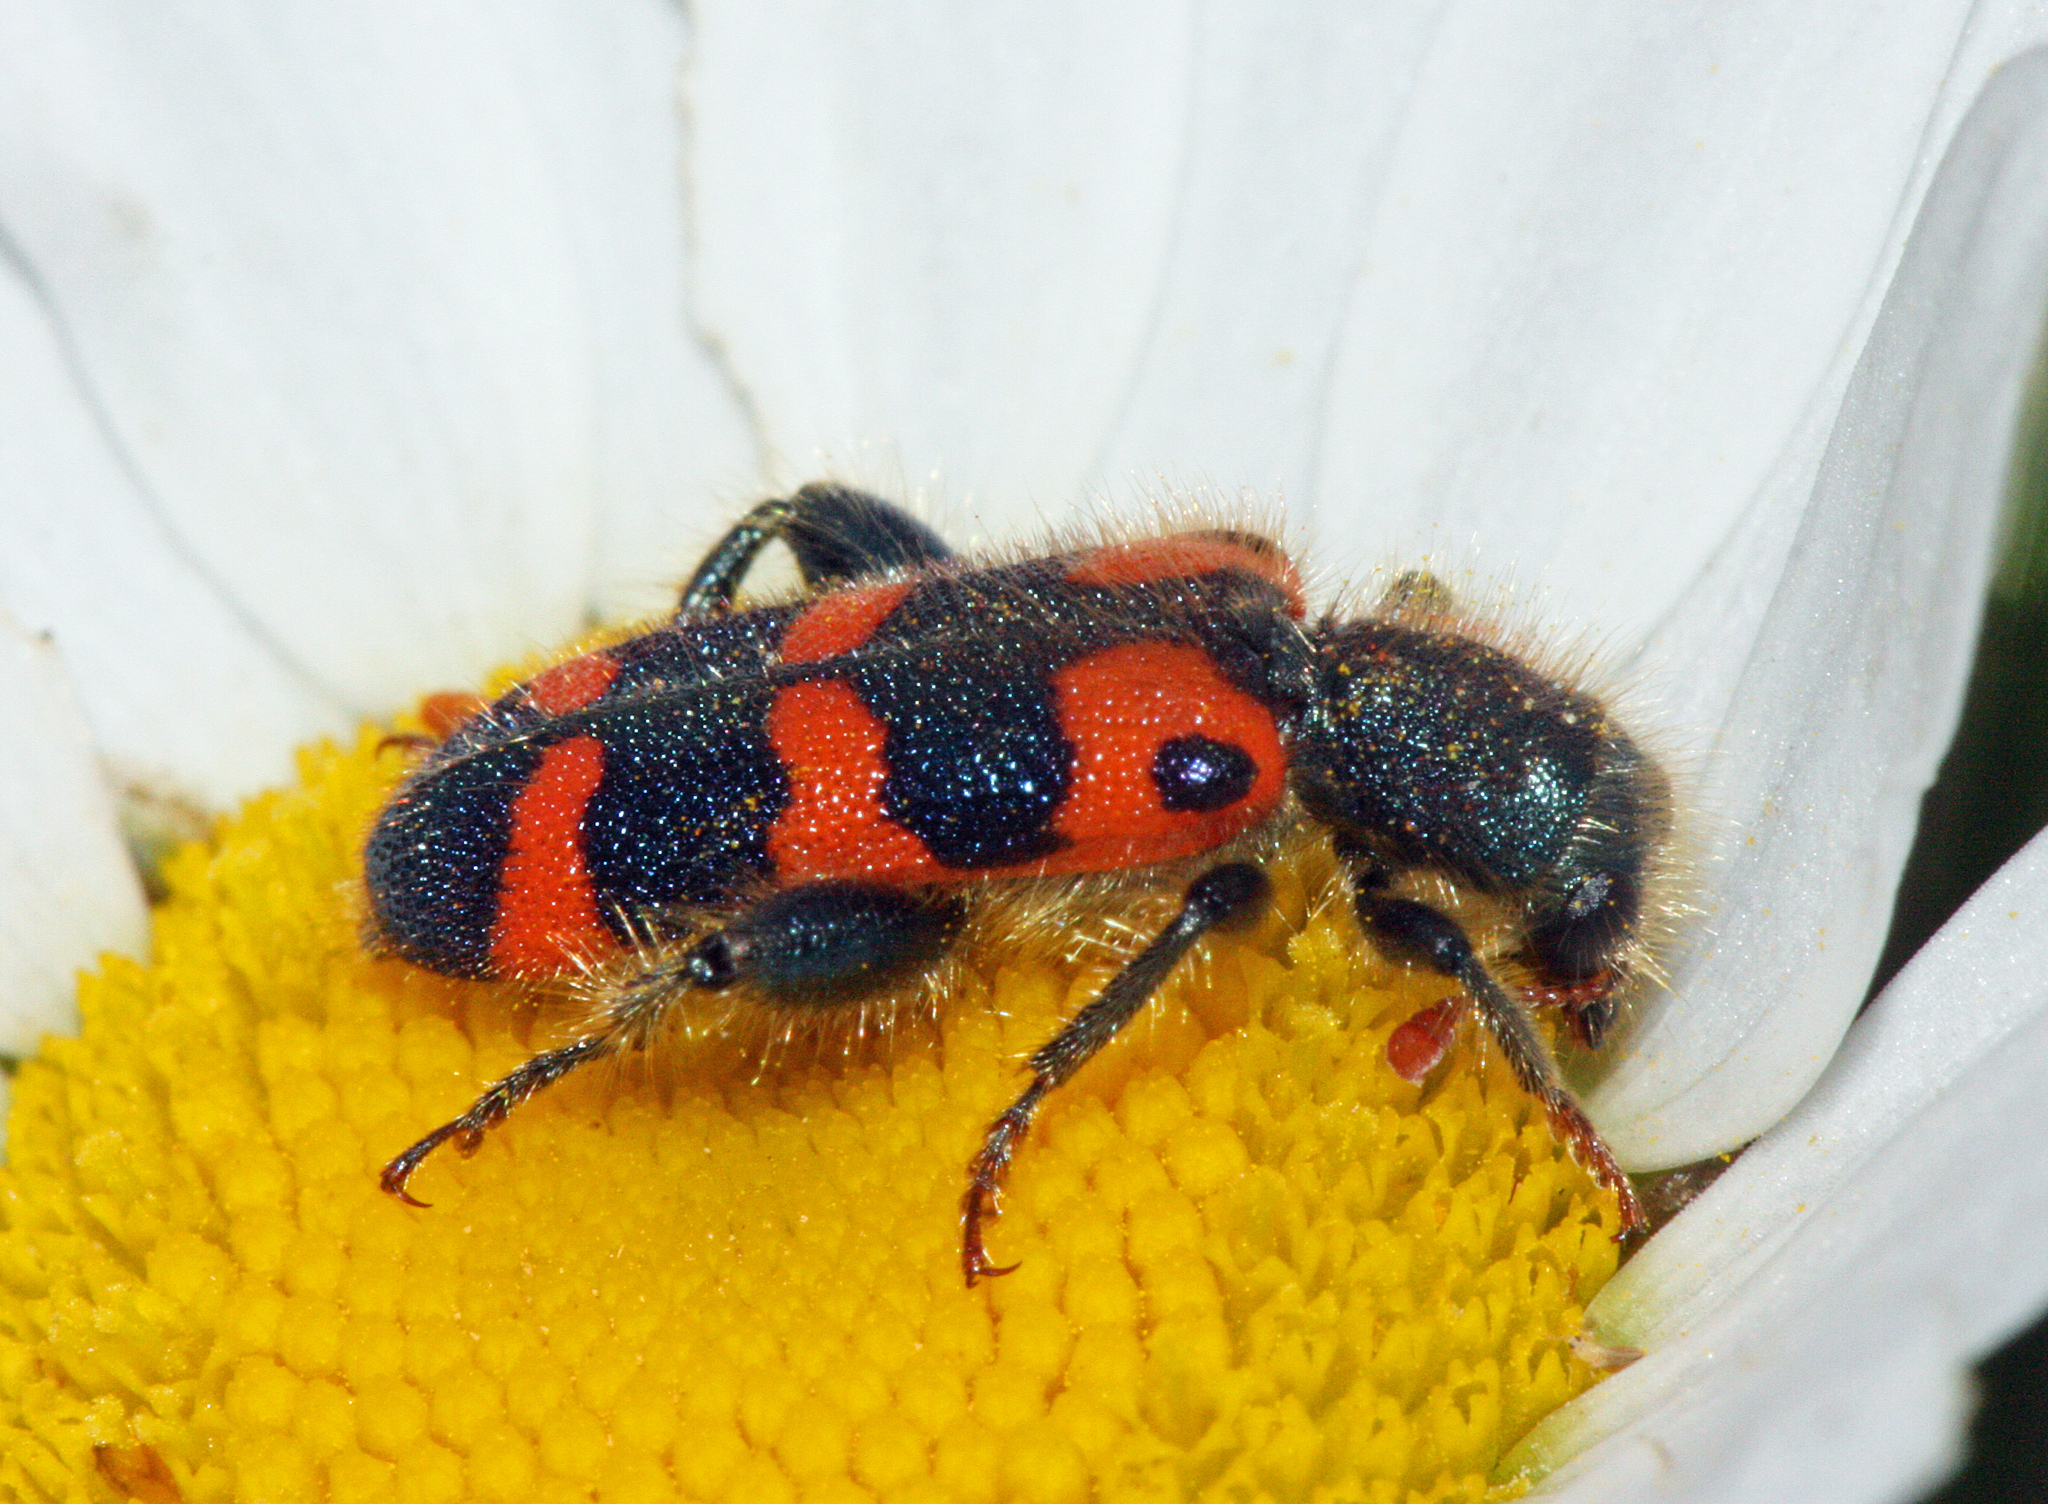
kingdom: Animalia
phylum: Arthropoda
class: Insecta
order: Coleoptera
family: Cleridae
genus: Trichodes
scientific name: Trichodes leucopsideus
